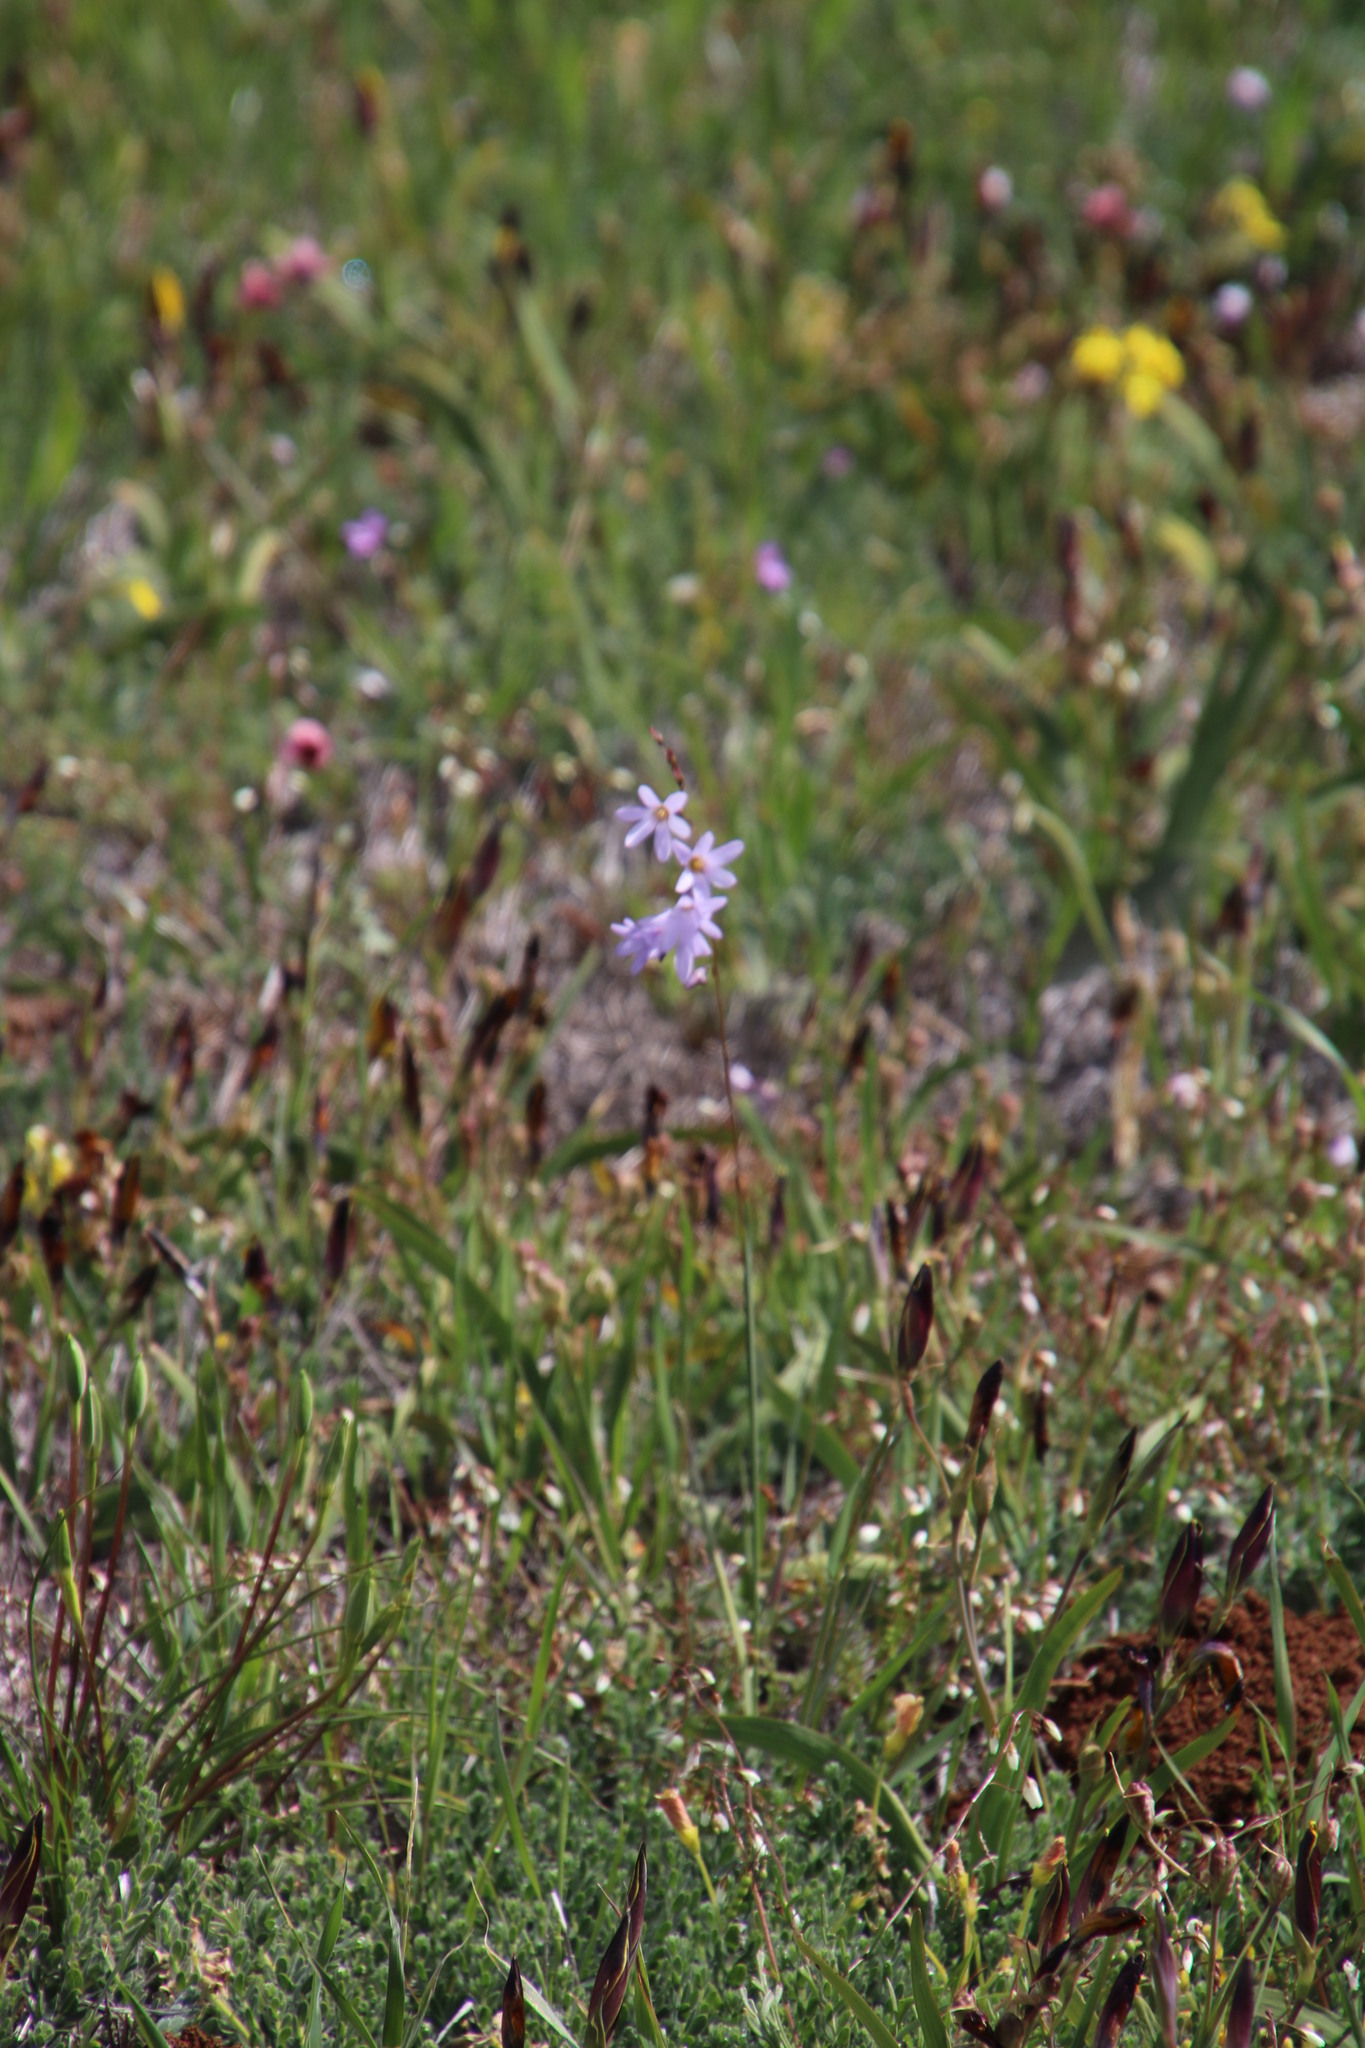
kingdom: Plantae
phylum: Tracheophyta
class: Liliopsida
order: Asparagales
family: Iridaceae
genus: Ixia
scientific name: Ixia rapunculoides
